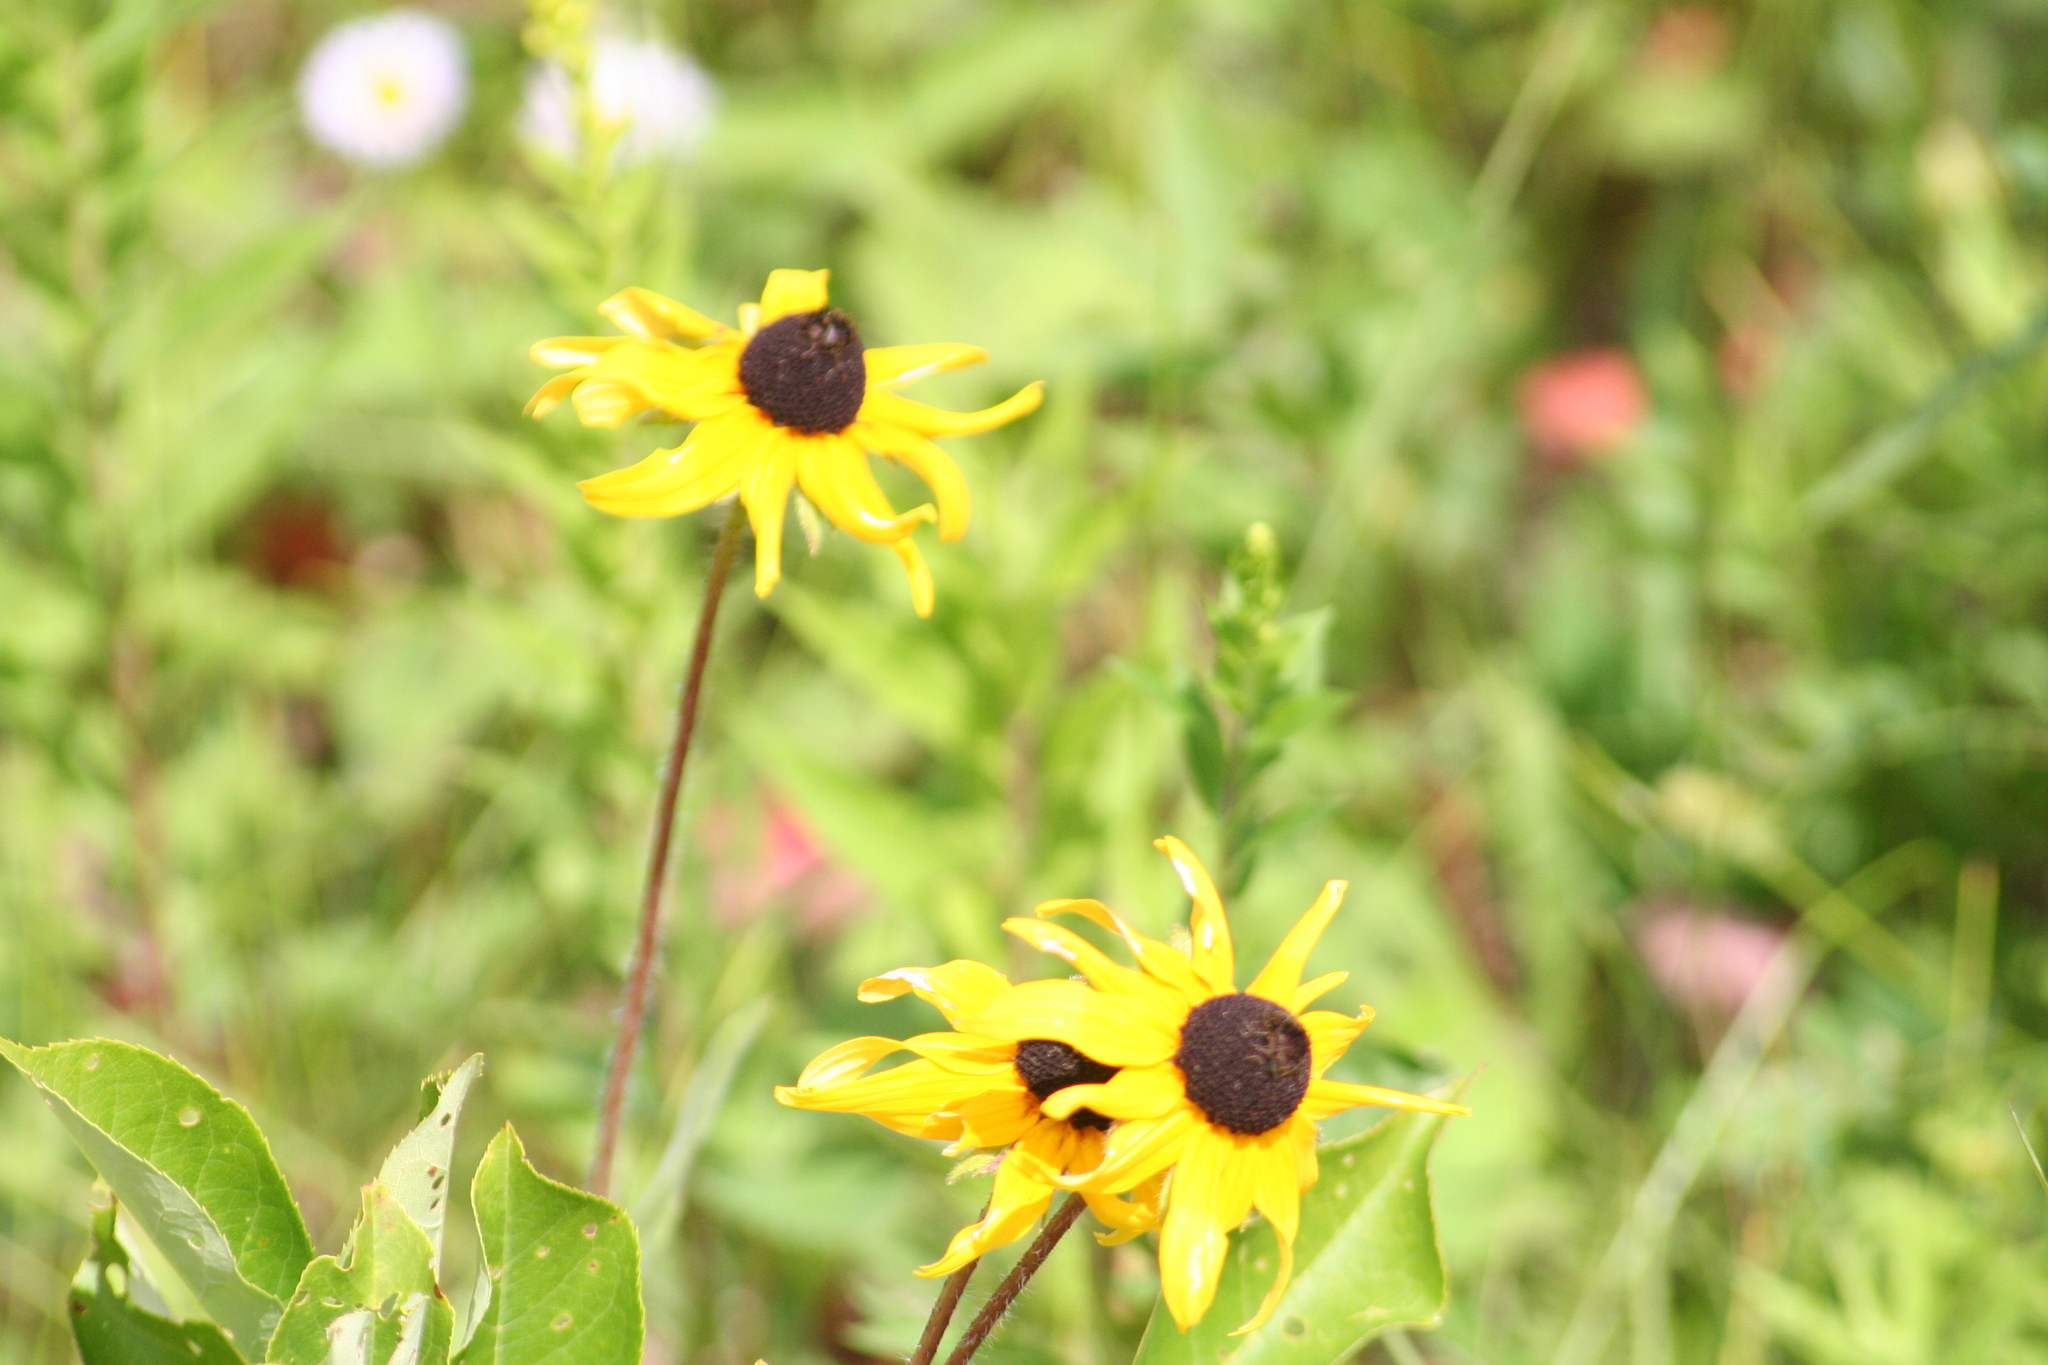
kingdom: Plantae
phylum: Tracheophyta
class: Magnoliopsida
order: Asterales
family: Asteraceae
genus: Rudbeckia
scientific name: Rudbeckia hirta
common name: Black-eyed-susan
